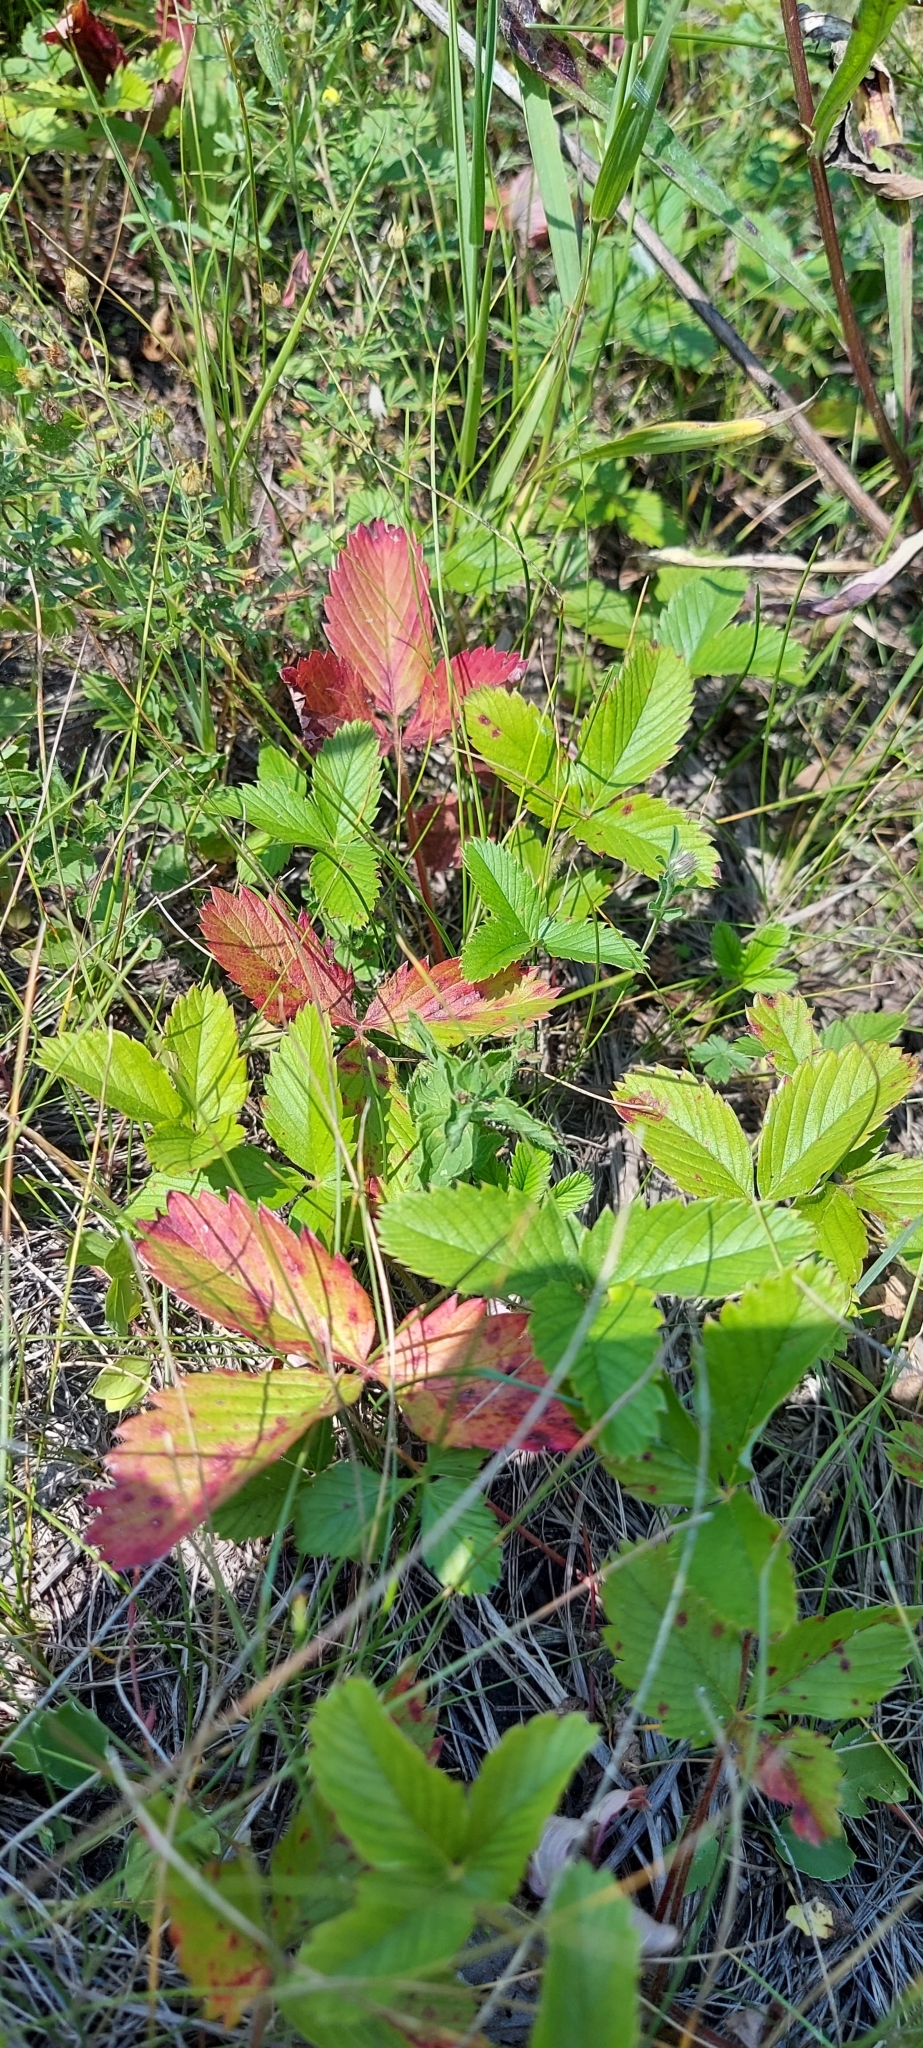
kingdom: Plantae
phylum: Tracheophyta
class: Magnoliopsida
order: Rosales
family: Rosaceae
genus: Fragaria
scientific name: Fragaria viridis
